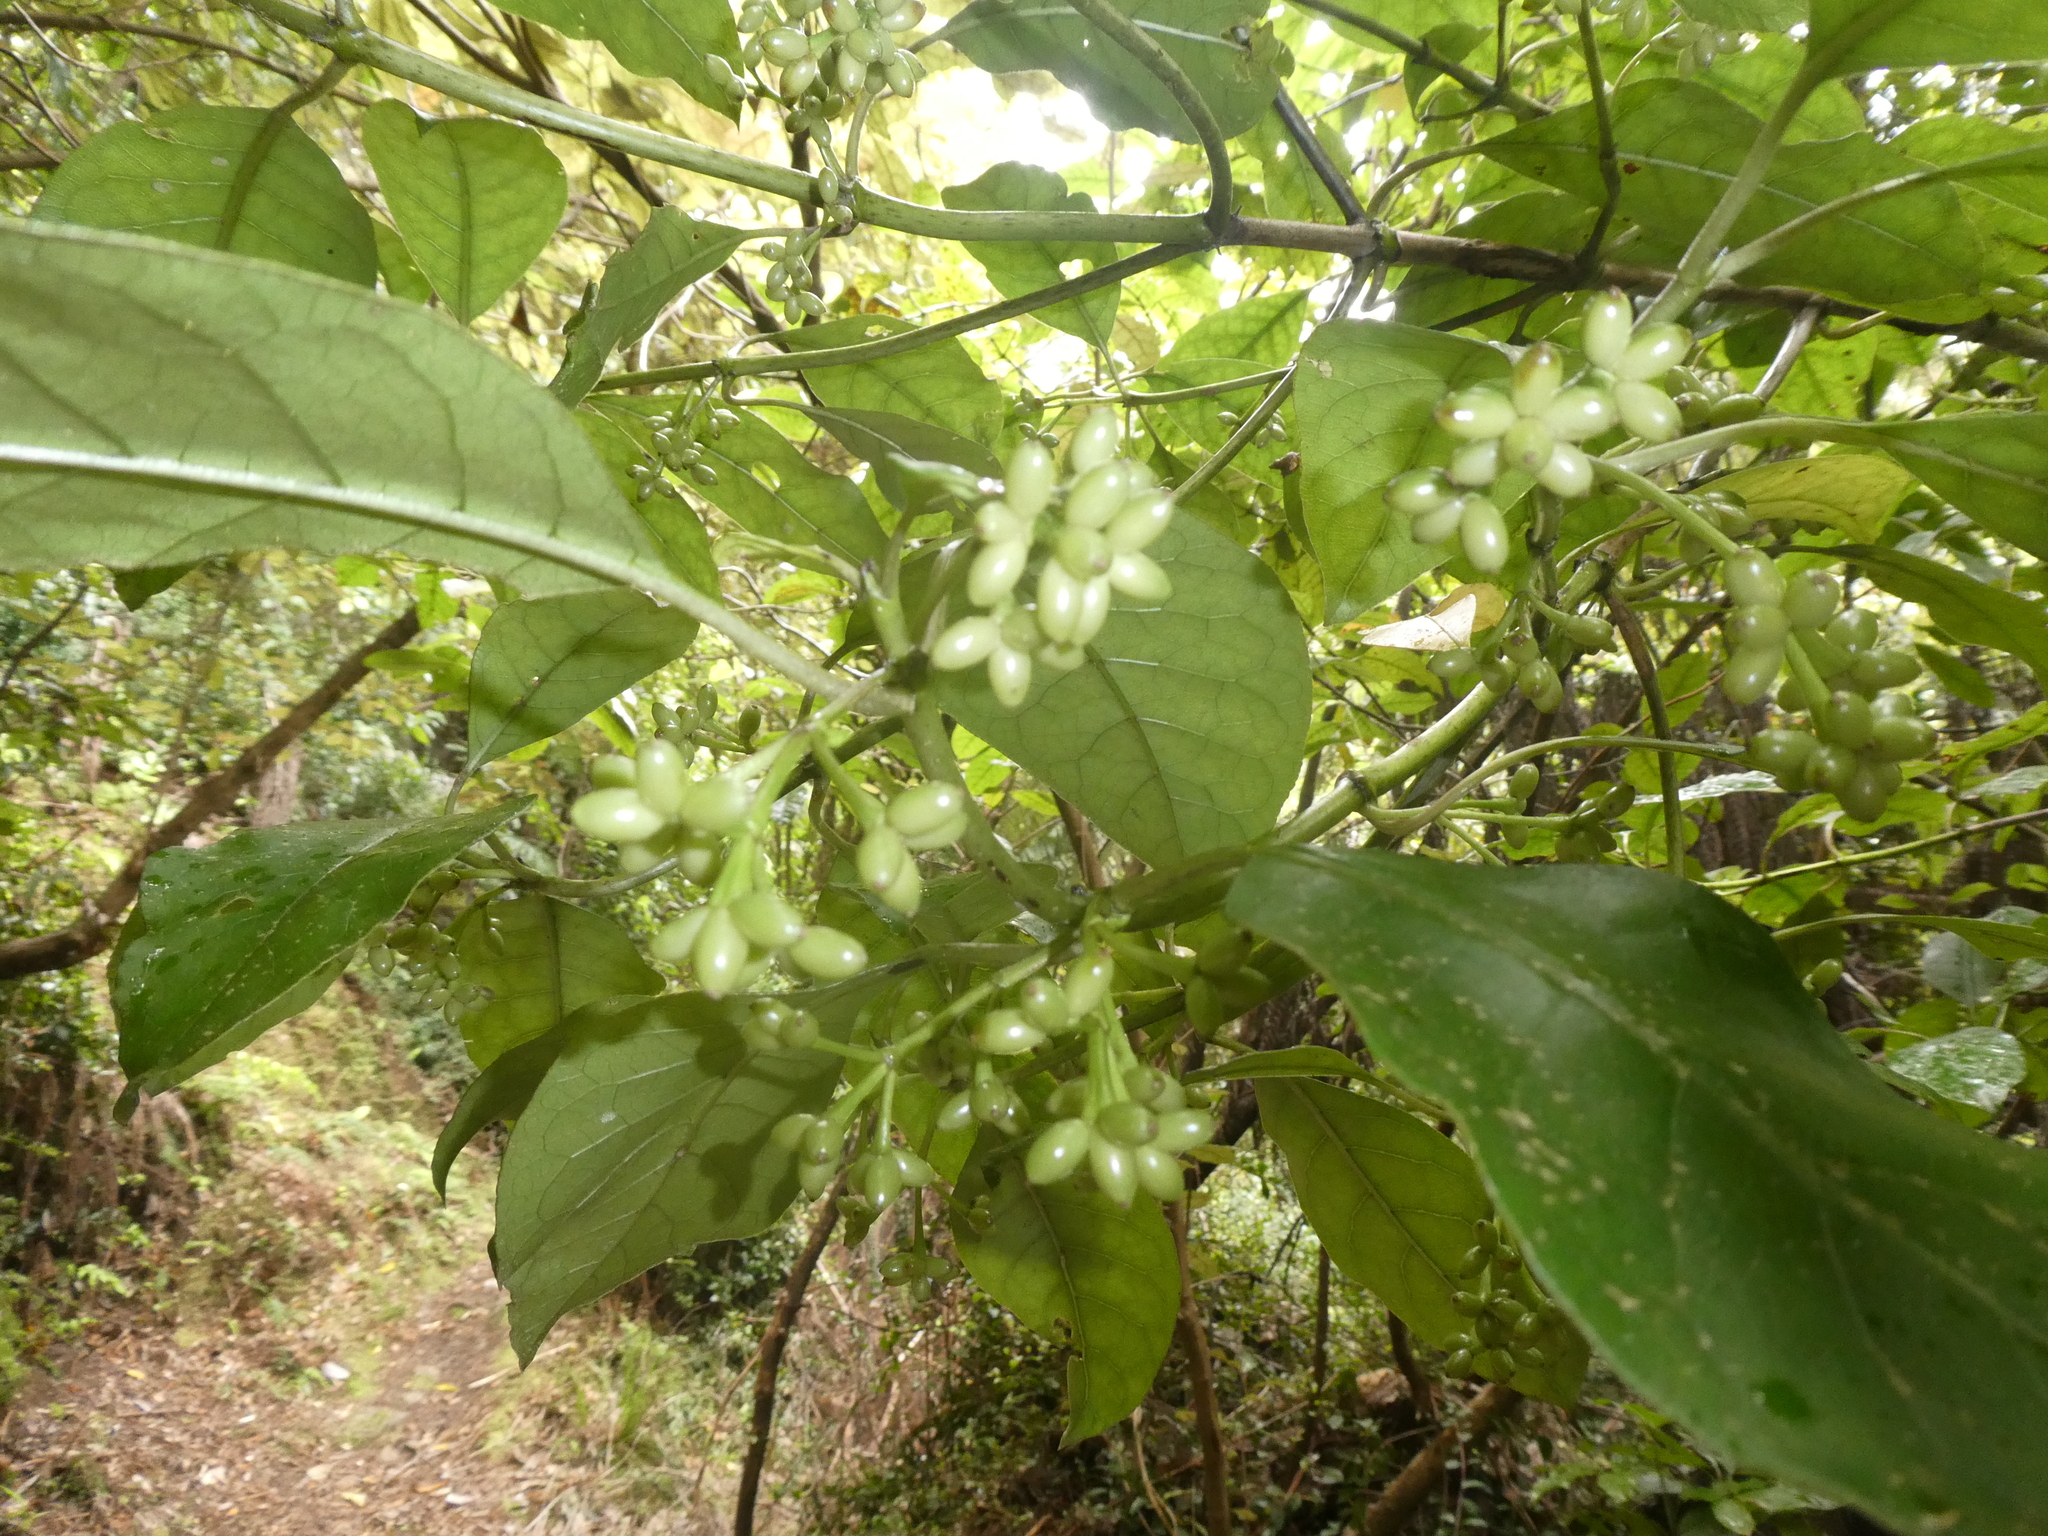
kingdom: Plantae
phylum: Tracheophyta
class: Magnoliopsida
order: Gentianales
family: Rubiaceae
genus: Coprosma
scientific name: Coprosma autumnalis
